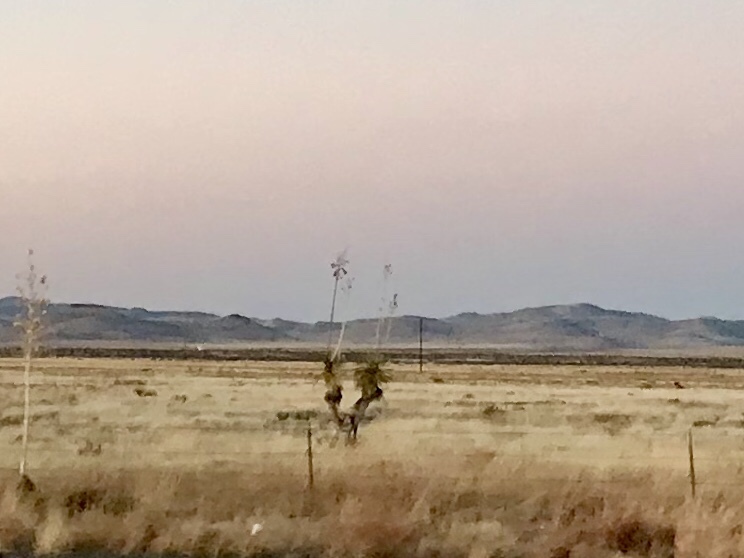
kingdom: Plantae
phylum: Tracheophyta
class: Liliopsida
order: Asparagales
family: Asparagaceae
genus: Yucca
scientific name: Yucca elata
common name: Palmella
